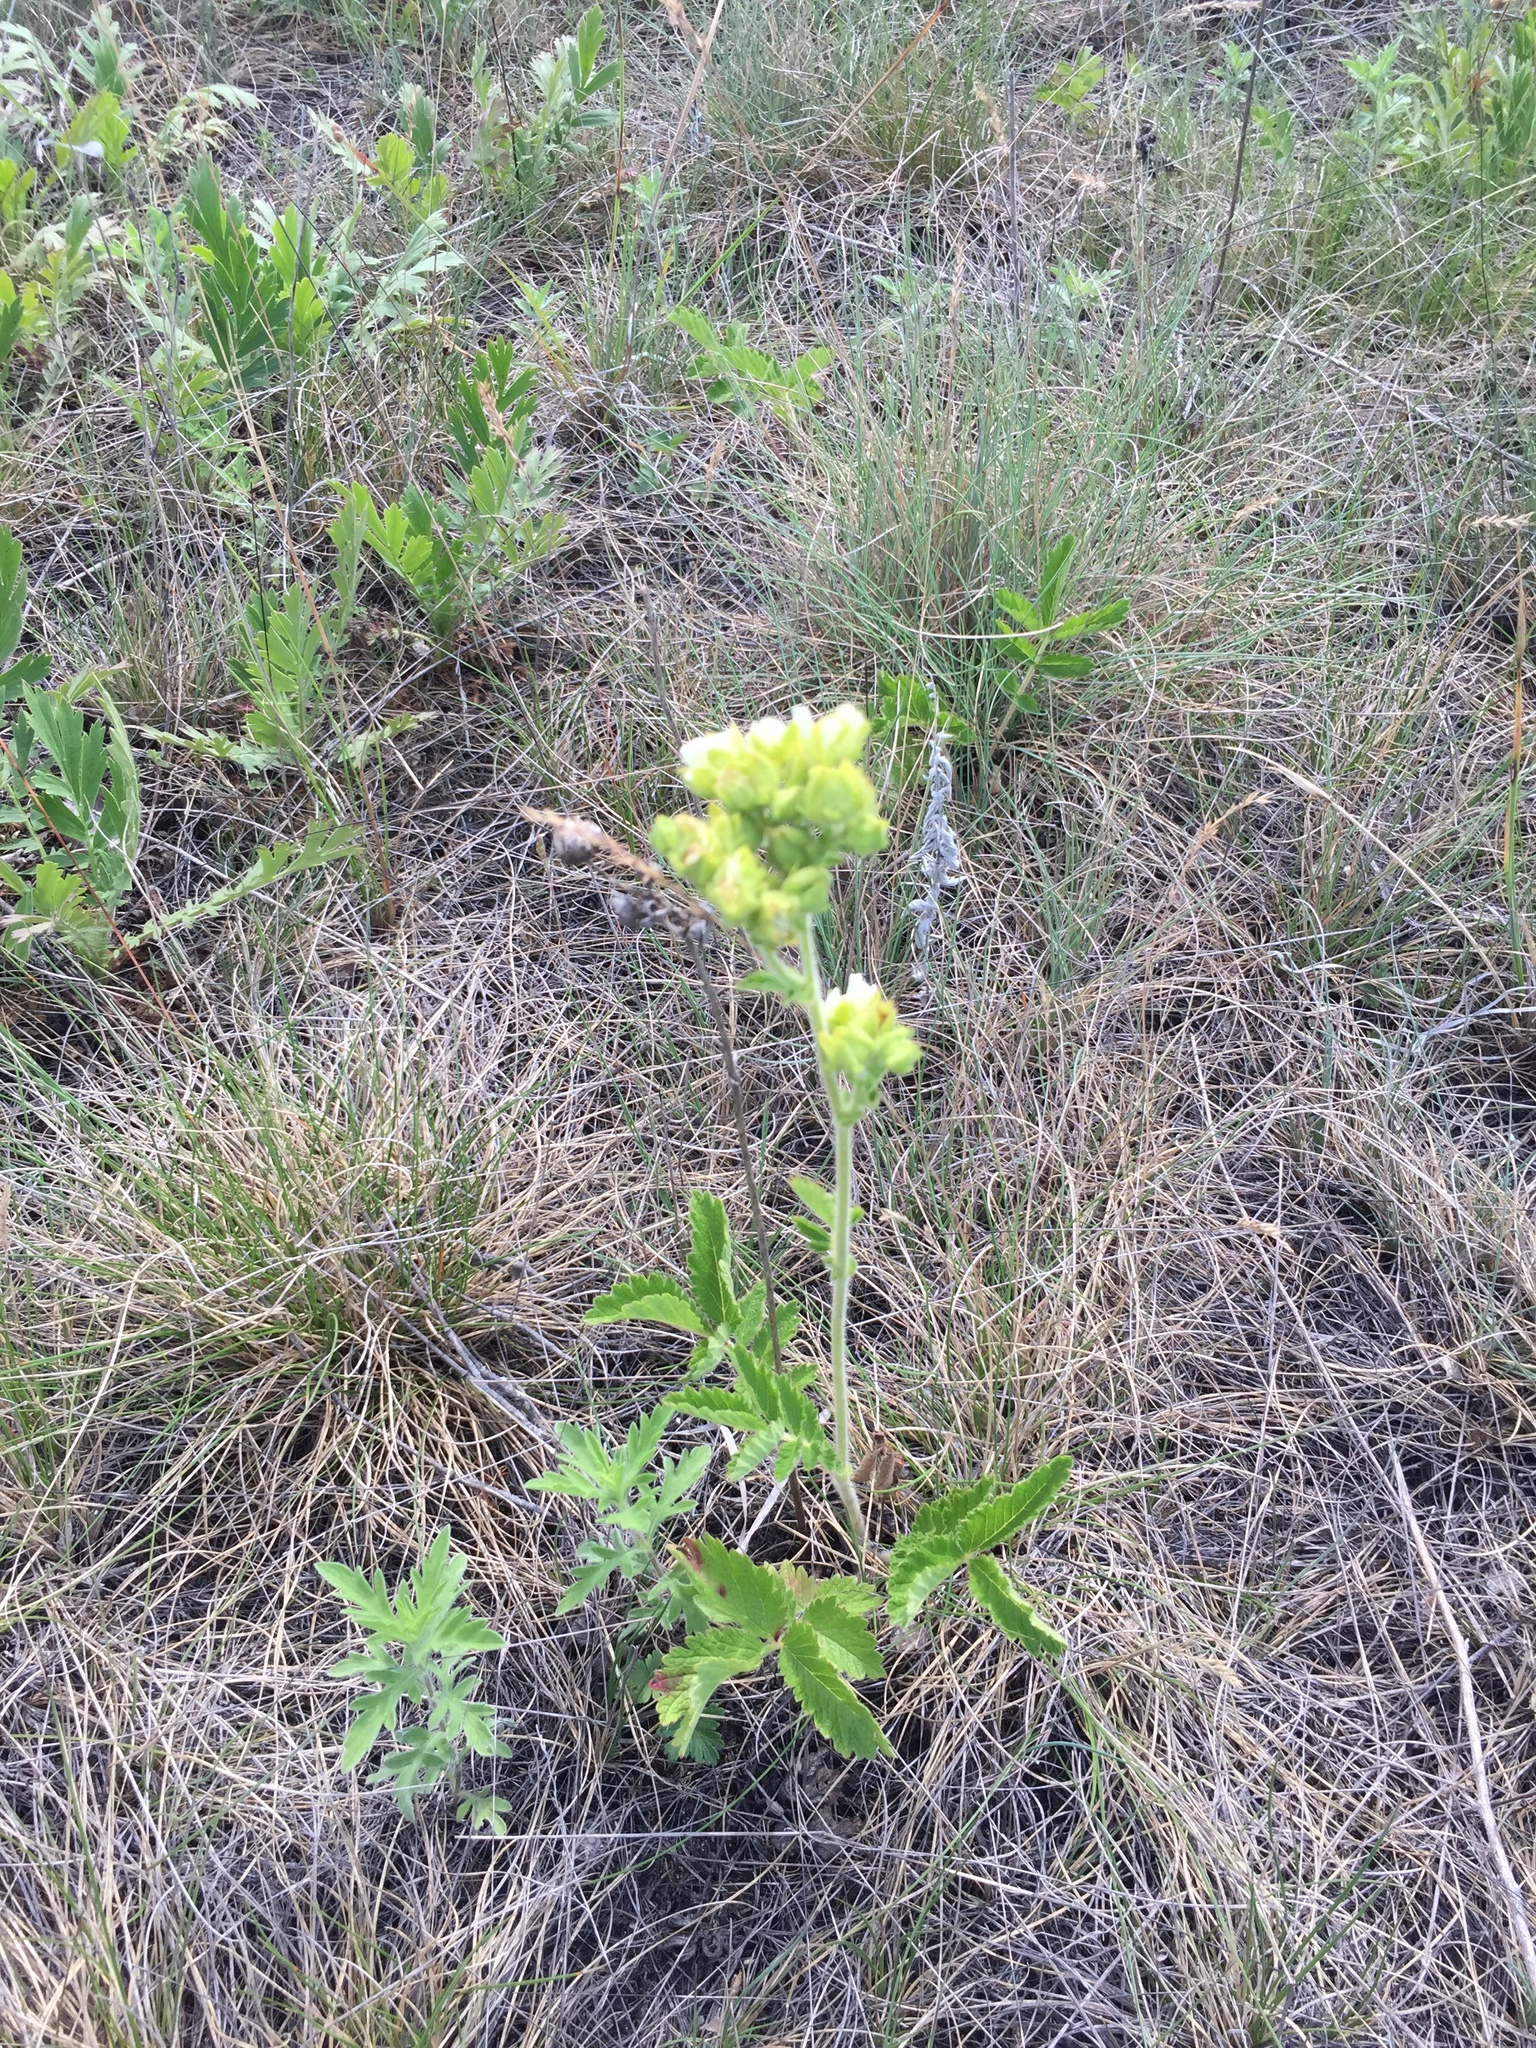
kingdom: Plantae
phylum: Tracheophyta
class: Magnoliopsida
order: Rosales
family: Rosaceae
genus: Drymocallis
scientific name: Drymocallis arguta
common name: Tall cinquefoil
